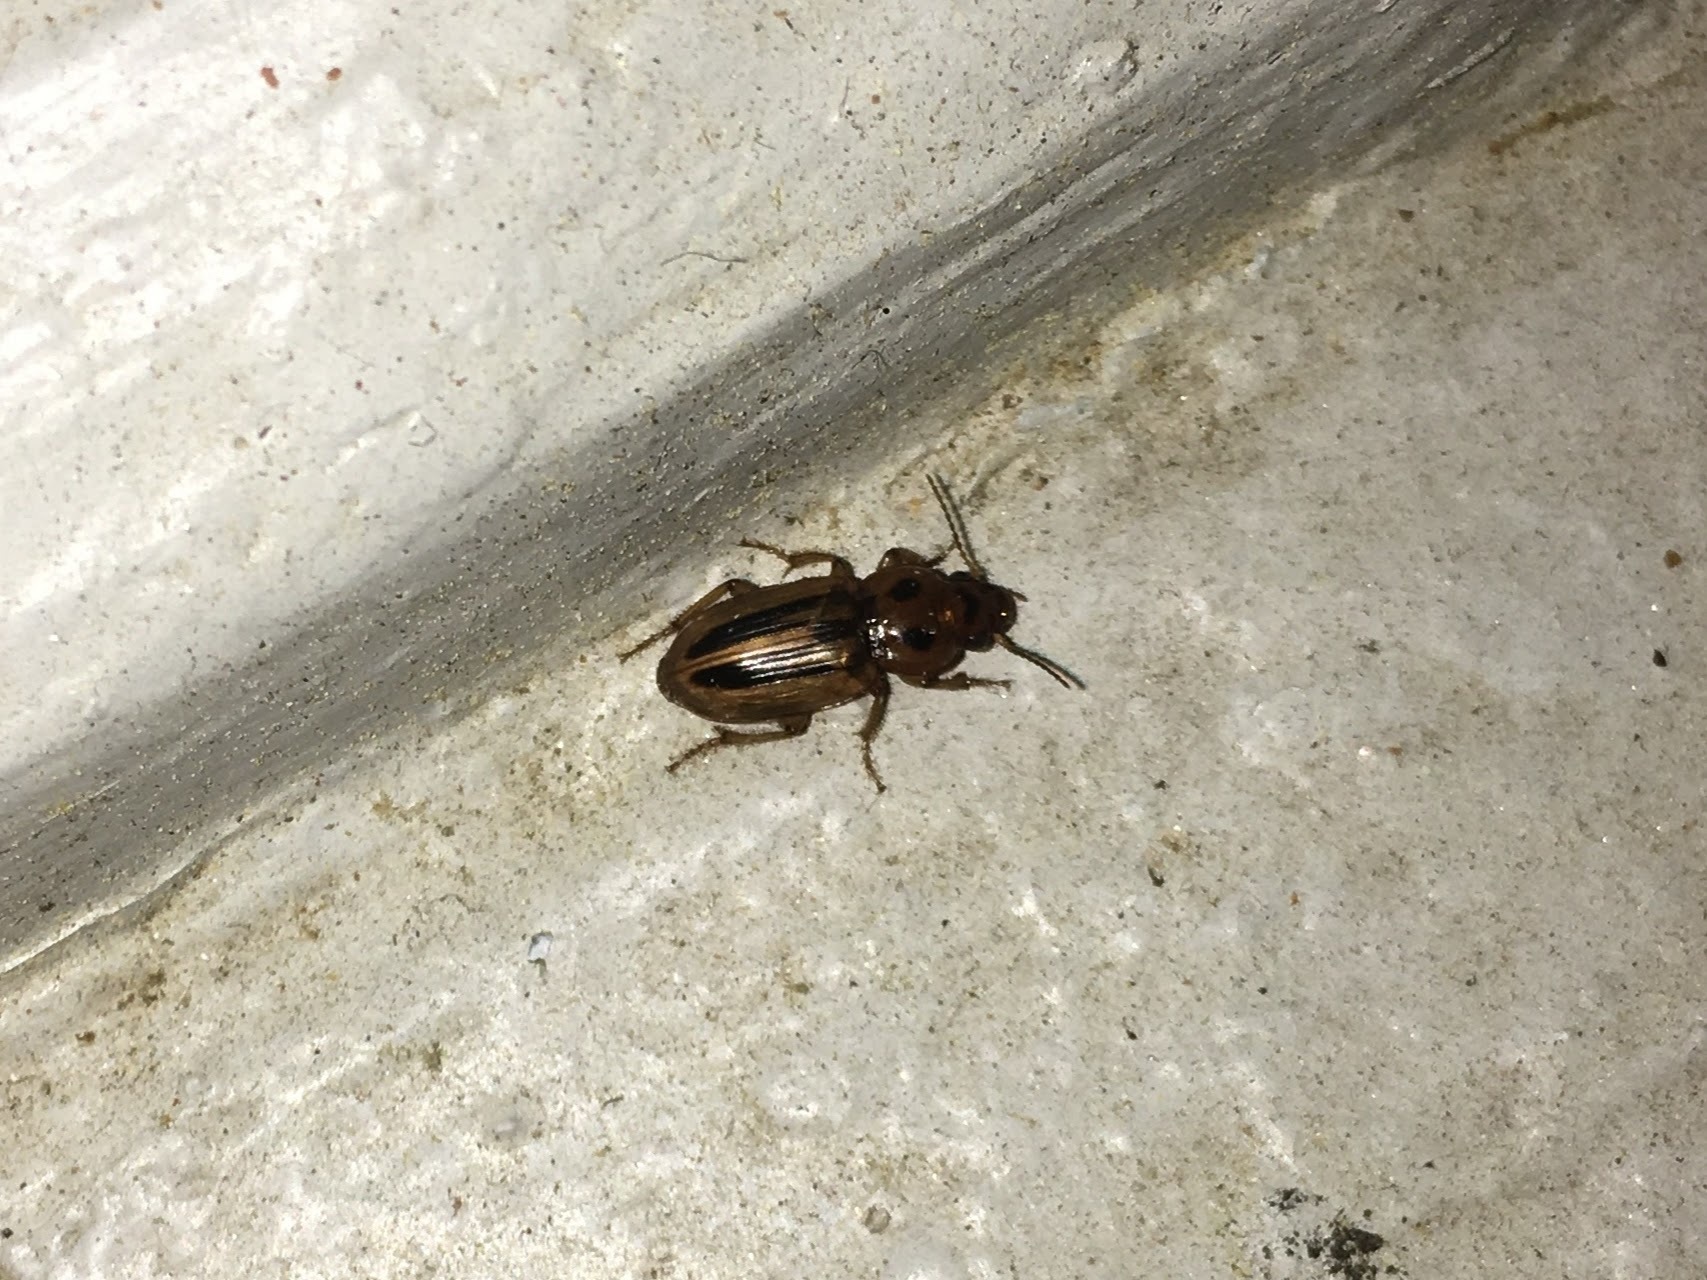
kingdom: Animalia
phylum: Arthropoda
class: Insecta
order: Coleoptera
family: Carabidae
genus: Stenolophus
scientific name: Stenolophus lineola
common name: Lined stenolophus
